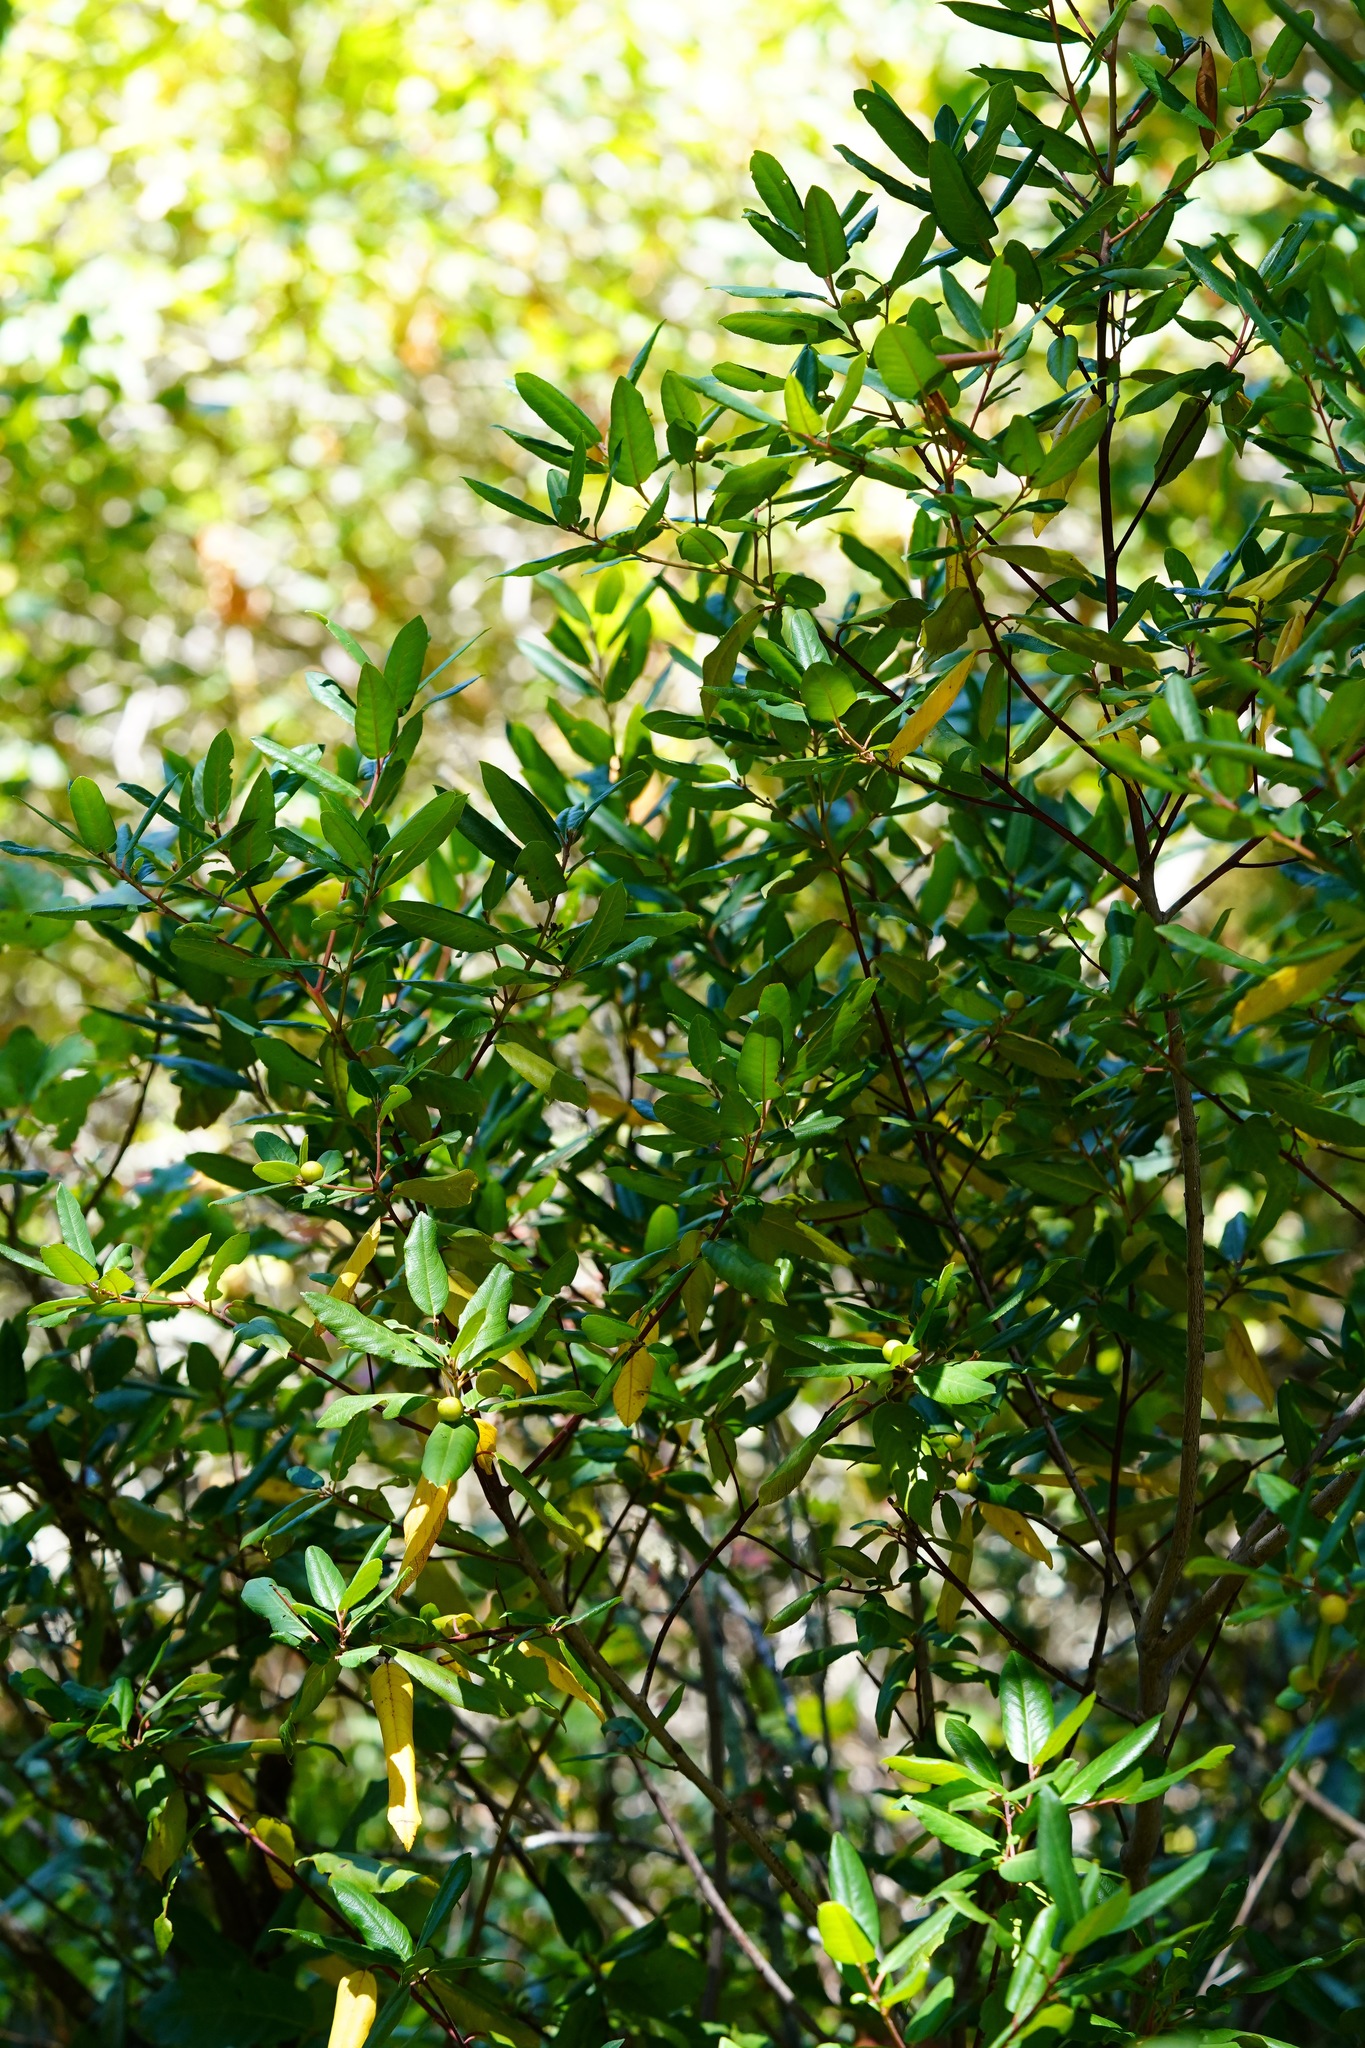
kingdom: Plantae
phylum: Tracheophyta
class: Magnoliopsida
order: Rosales
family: Rhamnaceae
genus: Frangula
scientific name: Frangula californica
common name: California buckthorn
